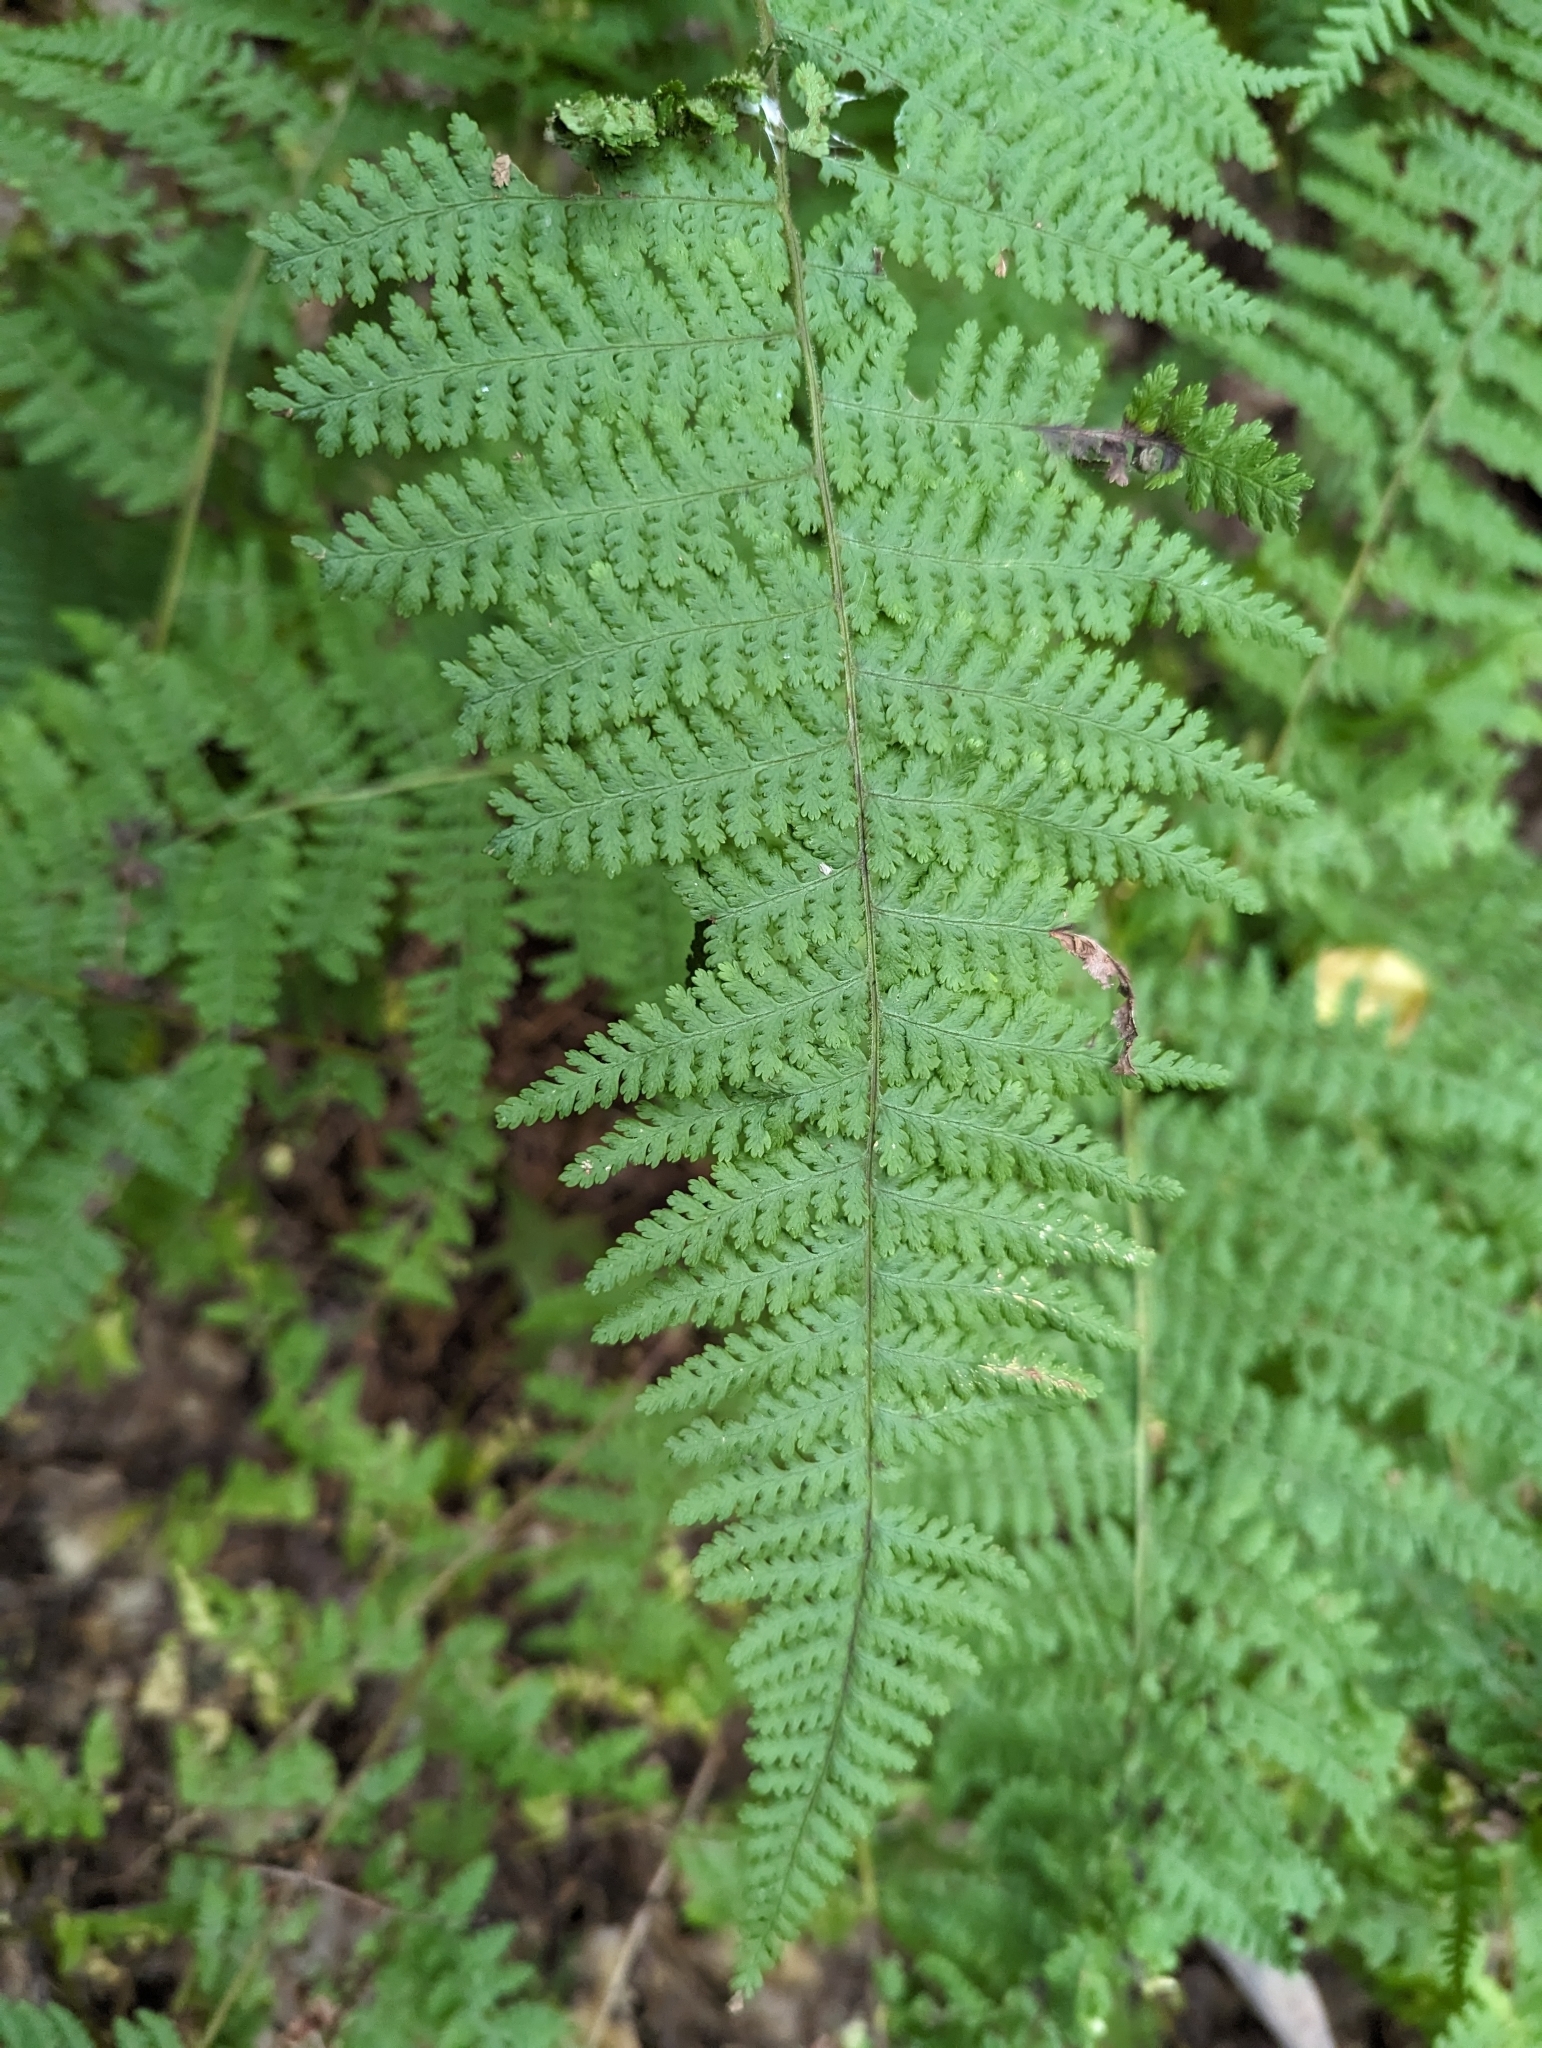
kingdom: Plantae
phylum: Tracheophyta
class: Polypodiopsida
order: Polypodiales
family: Dennstaedtiaceae
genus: Sitobolium
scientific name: Sitobolium punctilobum
